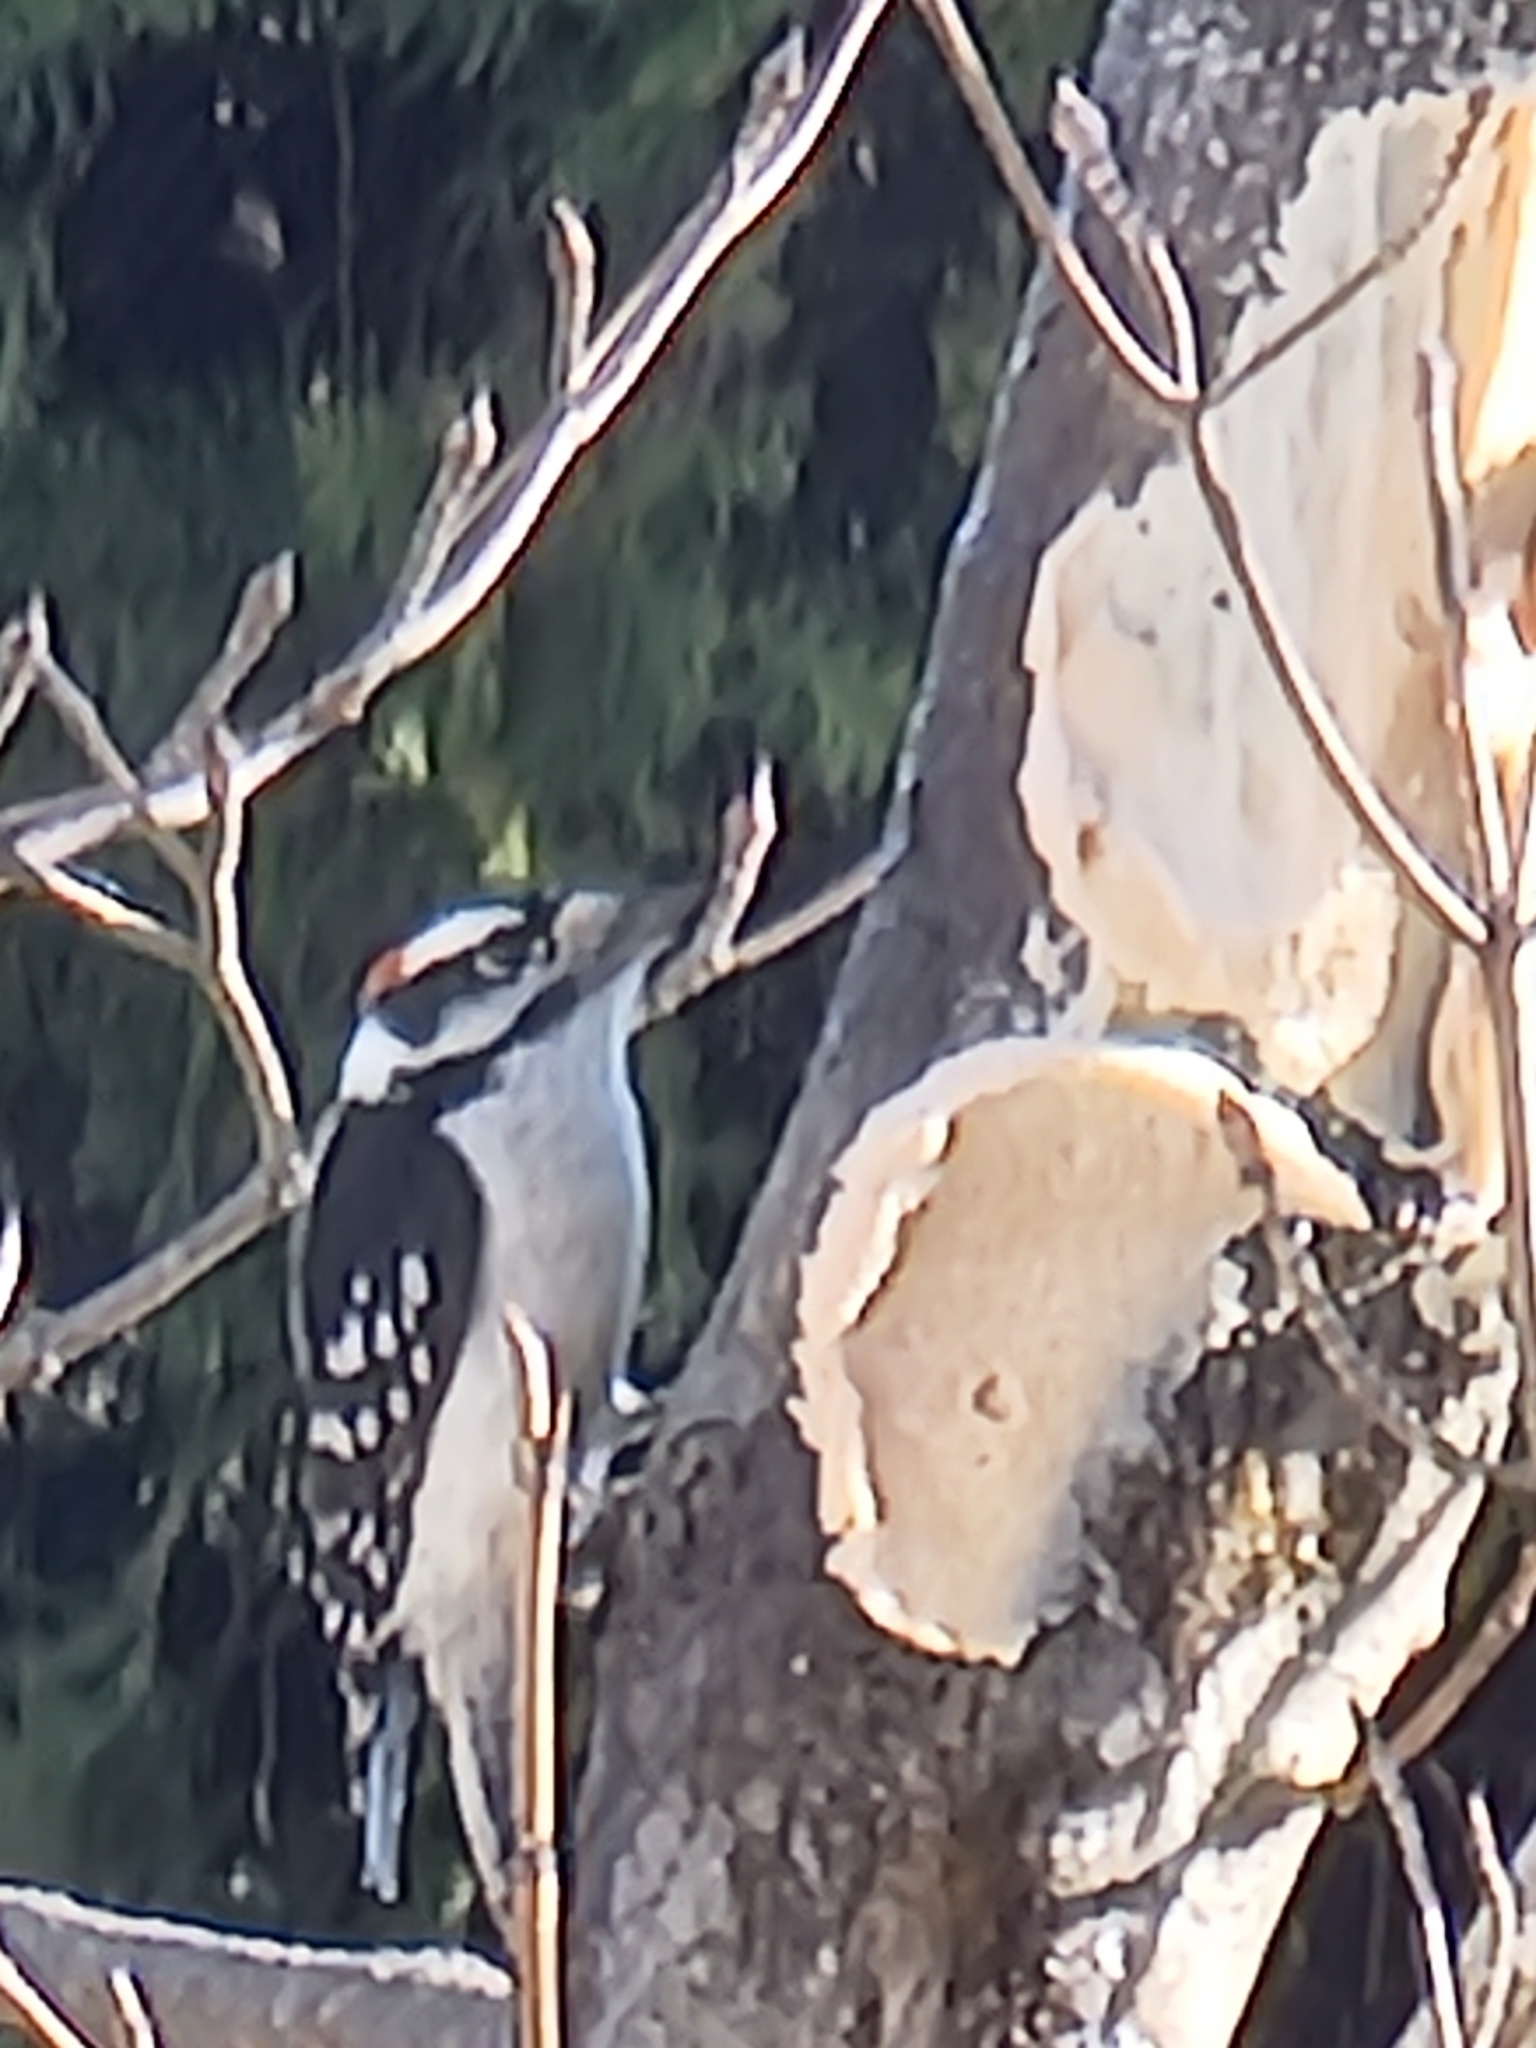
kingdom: Animalia
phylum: Chordata
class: Aves
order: Piciformes
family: Picidae
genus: Dryobates
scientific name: Dryobates pubescens
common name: Downy woodpecker
